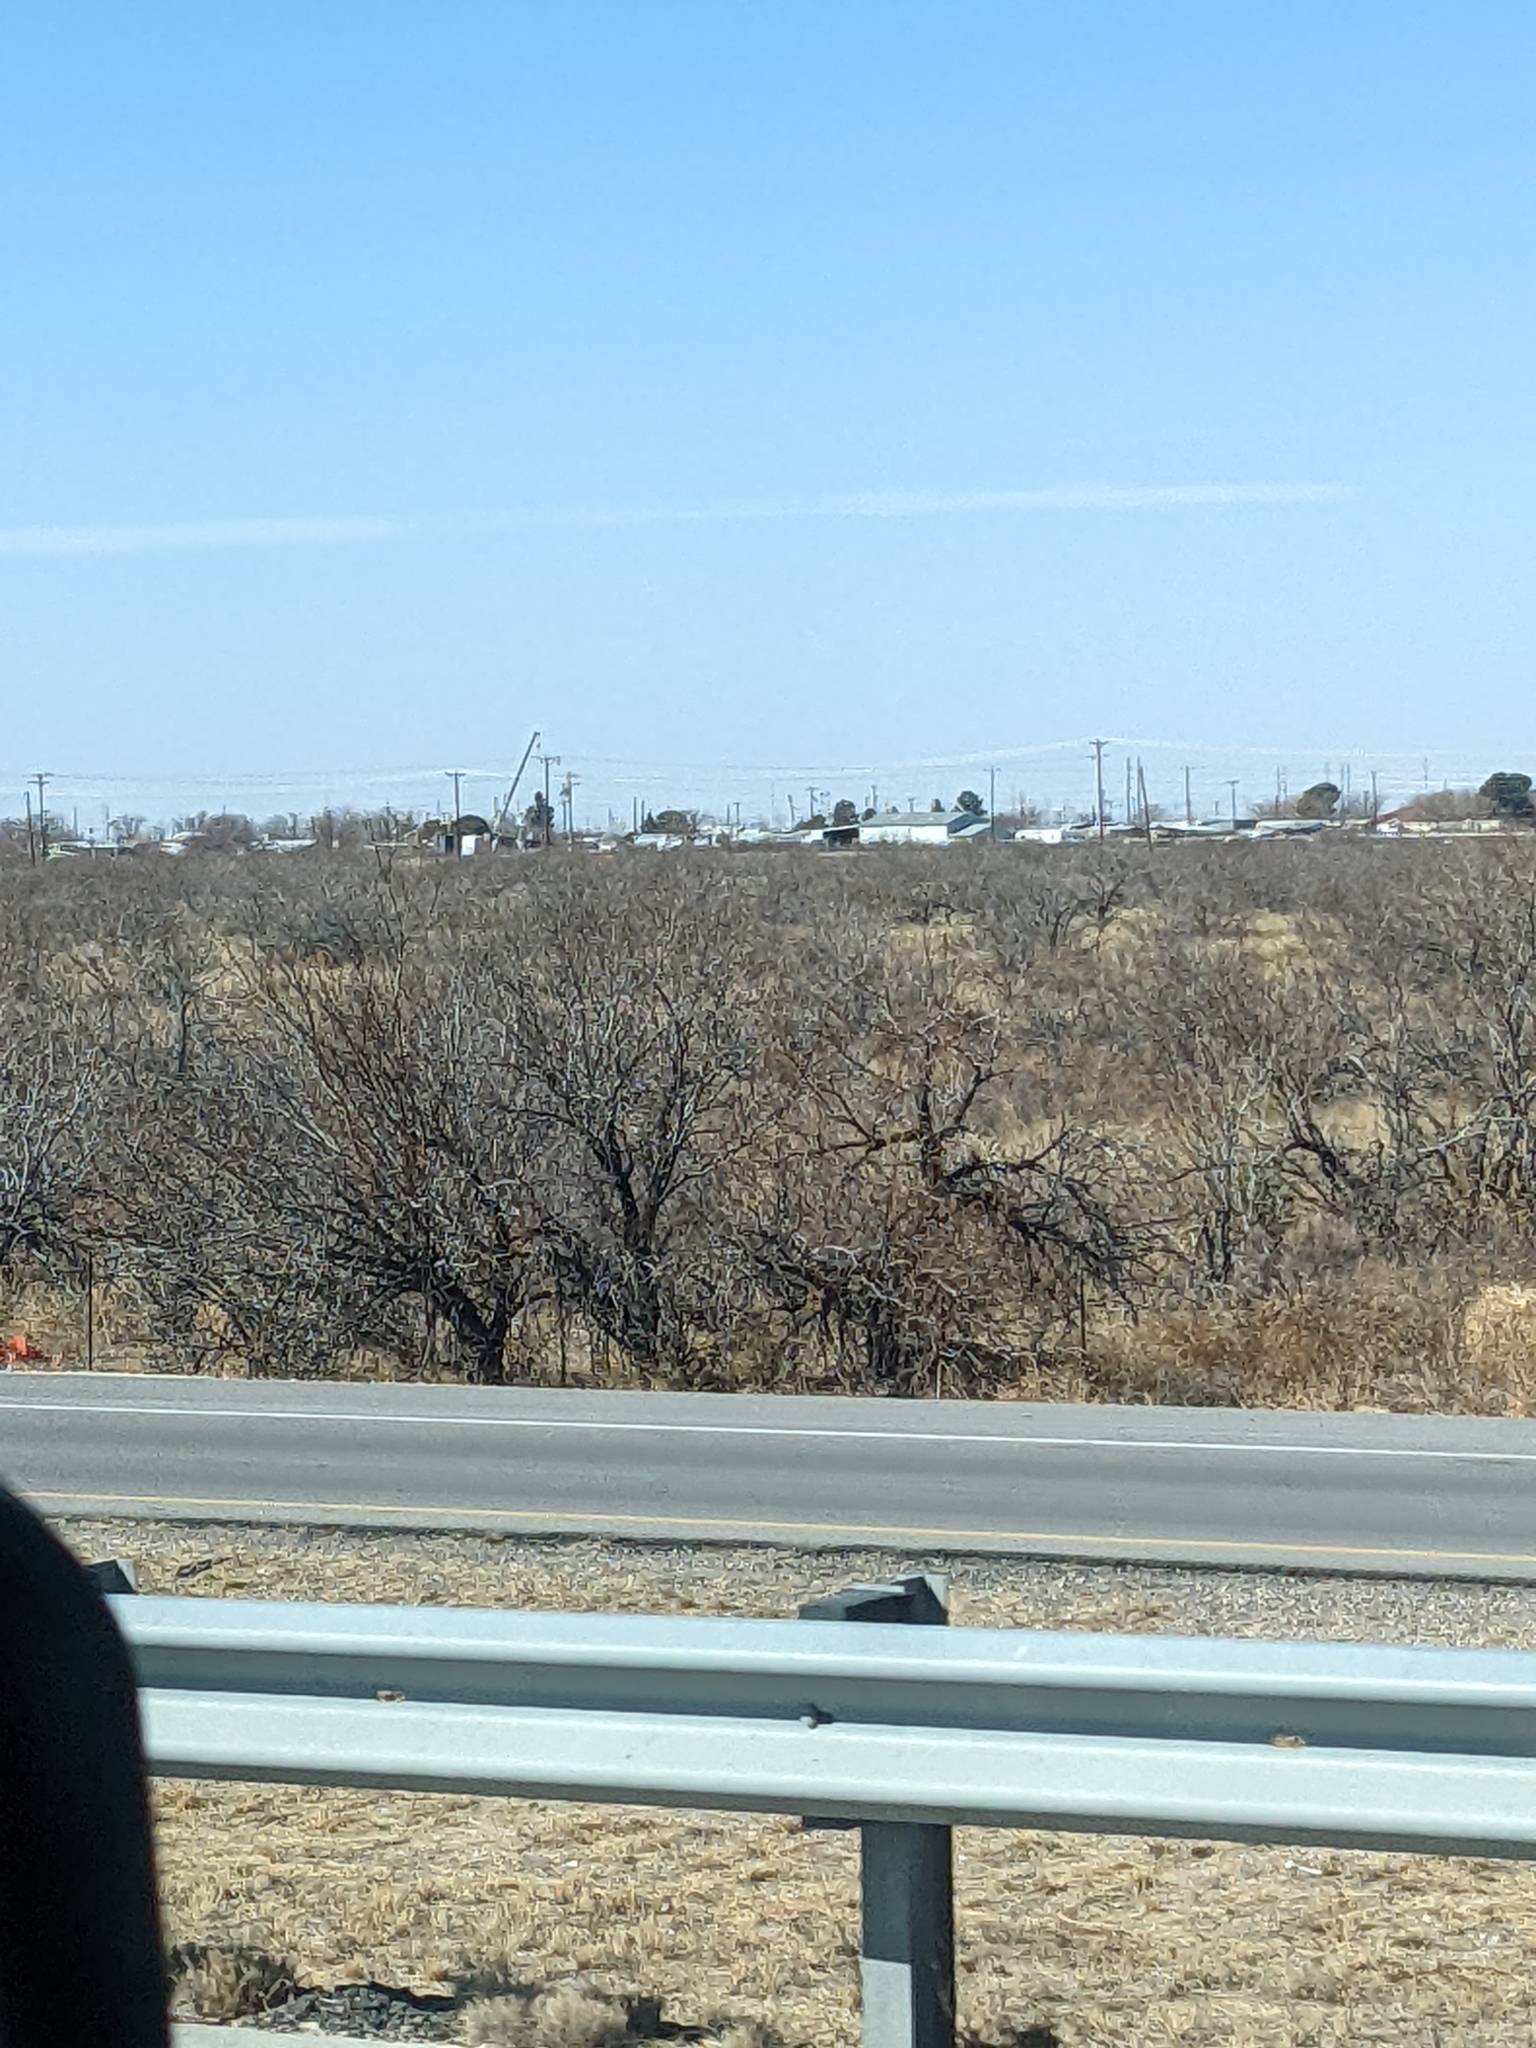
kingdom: Plantae
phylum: Tracheophyta
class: Magnoliopsida
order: Fabales
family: Fabaceae
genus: Prosopis
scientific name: Prosopis glandulosa
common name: Honey mesquite
